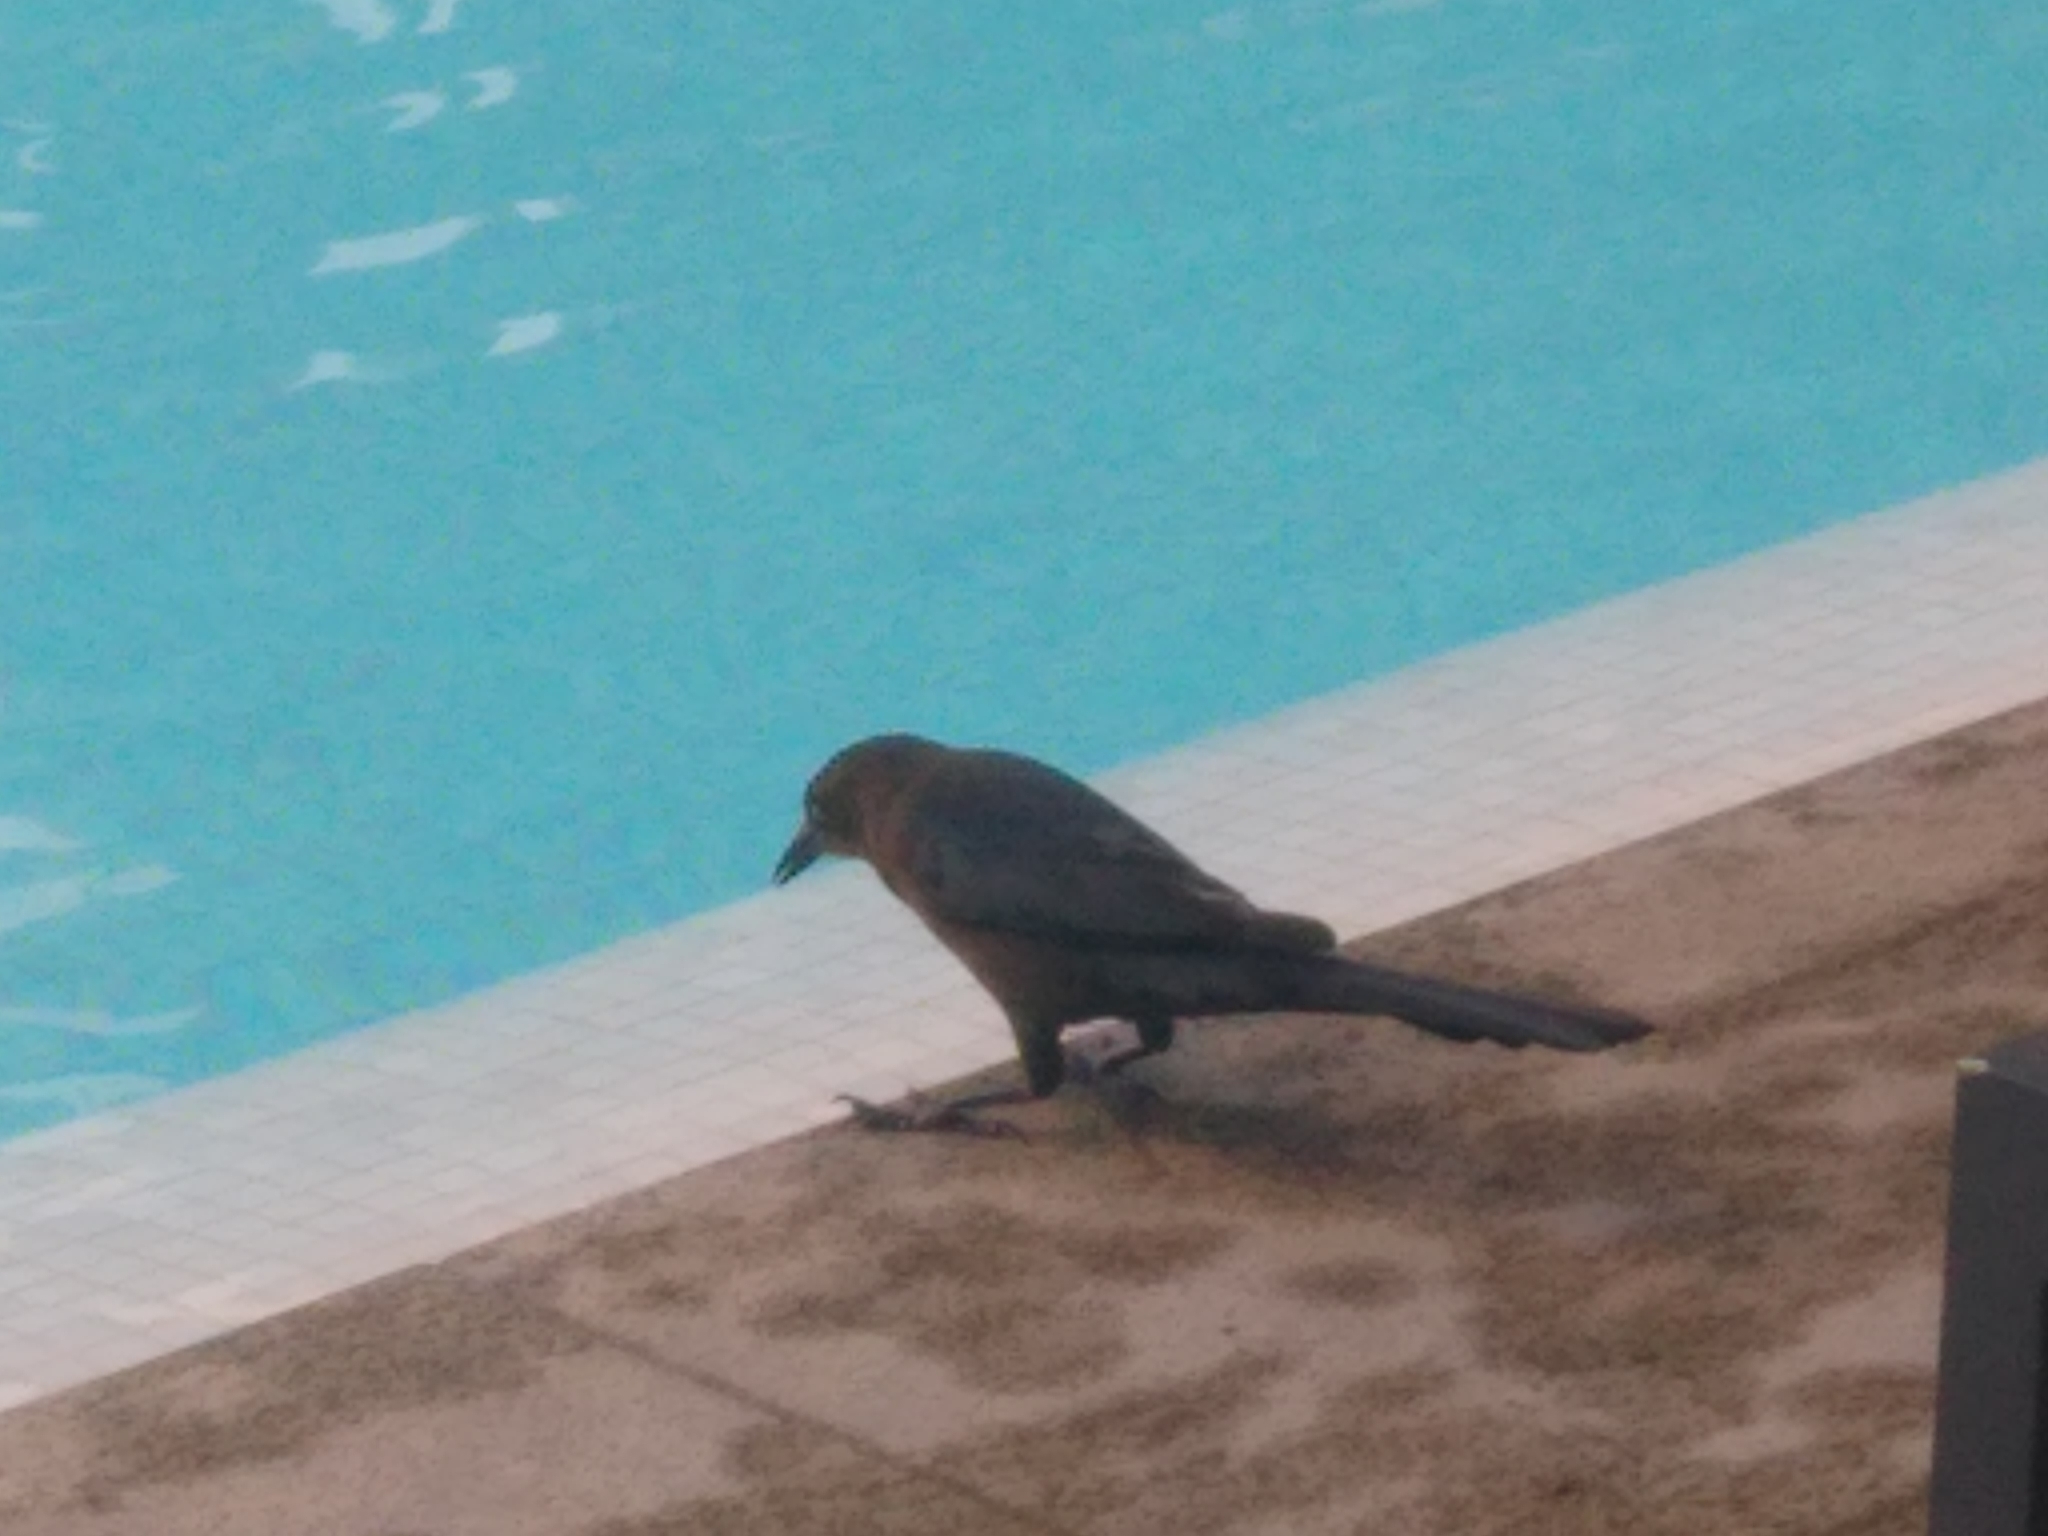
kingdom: Animalia
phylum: Chordata
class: Aves
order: Passeriformes
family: Icteridae
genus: Quiscalus
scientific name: Quiscalus mexicanus
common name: Great-tailed grackle
